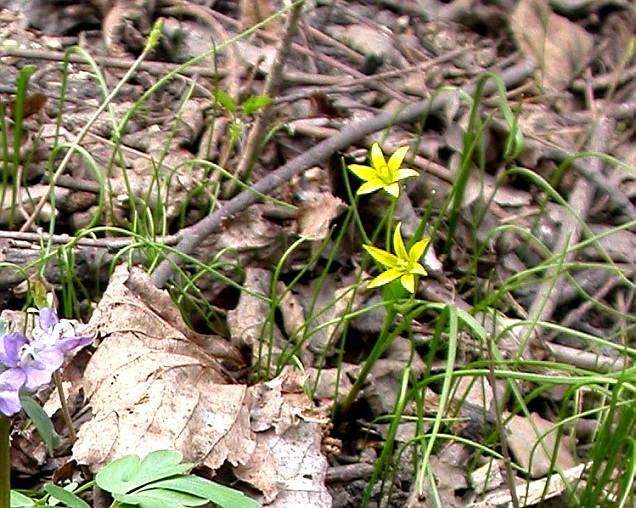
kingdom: Plantae
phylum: Tracheophyta
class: Liliopsida
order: Liliales
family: Liliaceae
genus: Gagea
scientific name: Gagea minima
